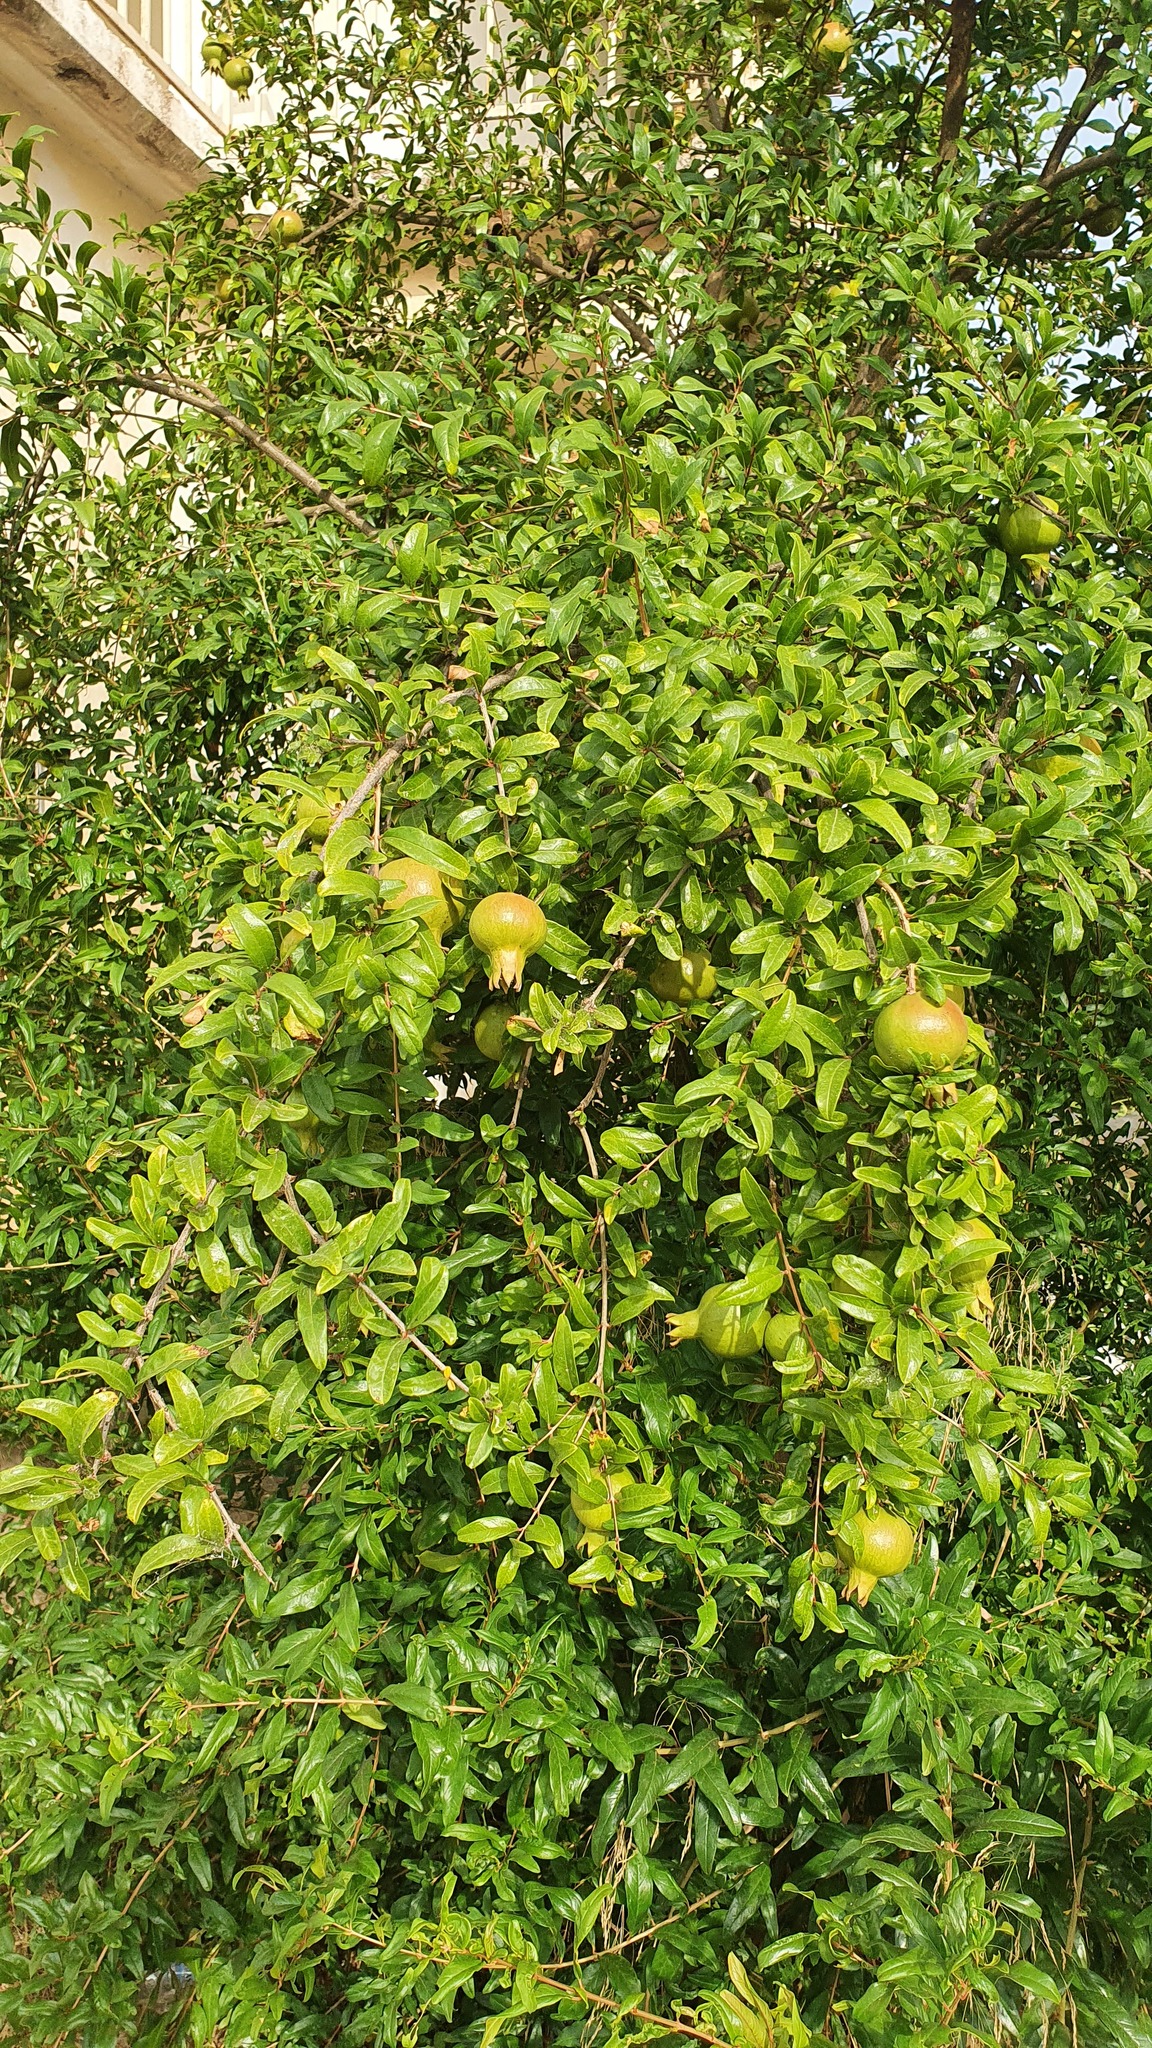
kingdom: Plantae
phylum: Tracheophyta
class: Magnoliopsida
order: Myrtales
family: Lythraceae
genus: Punica
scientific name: Punica granatum
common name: Pomegranate
